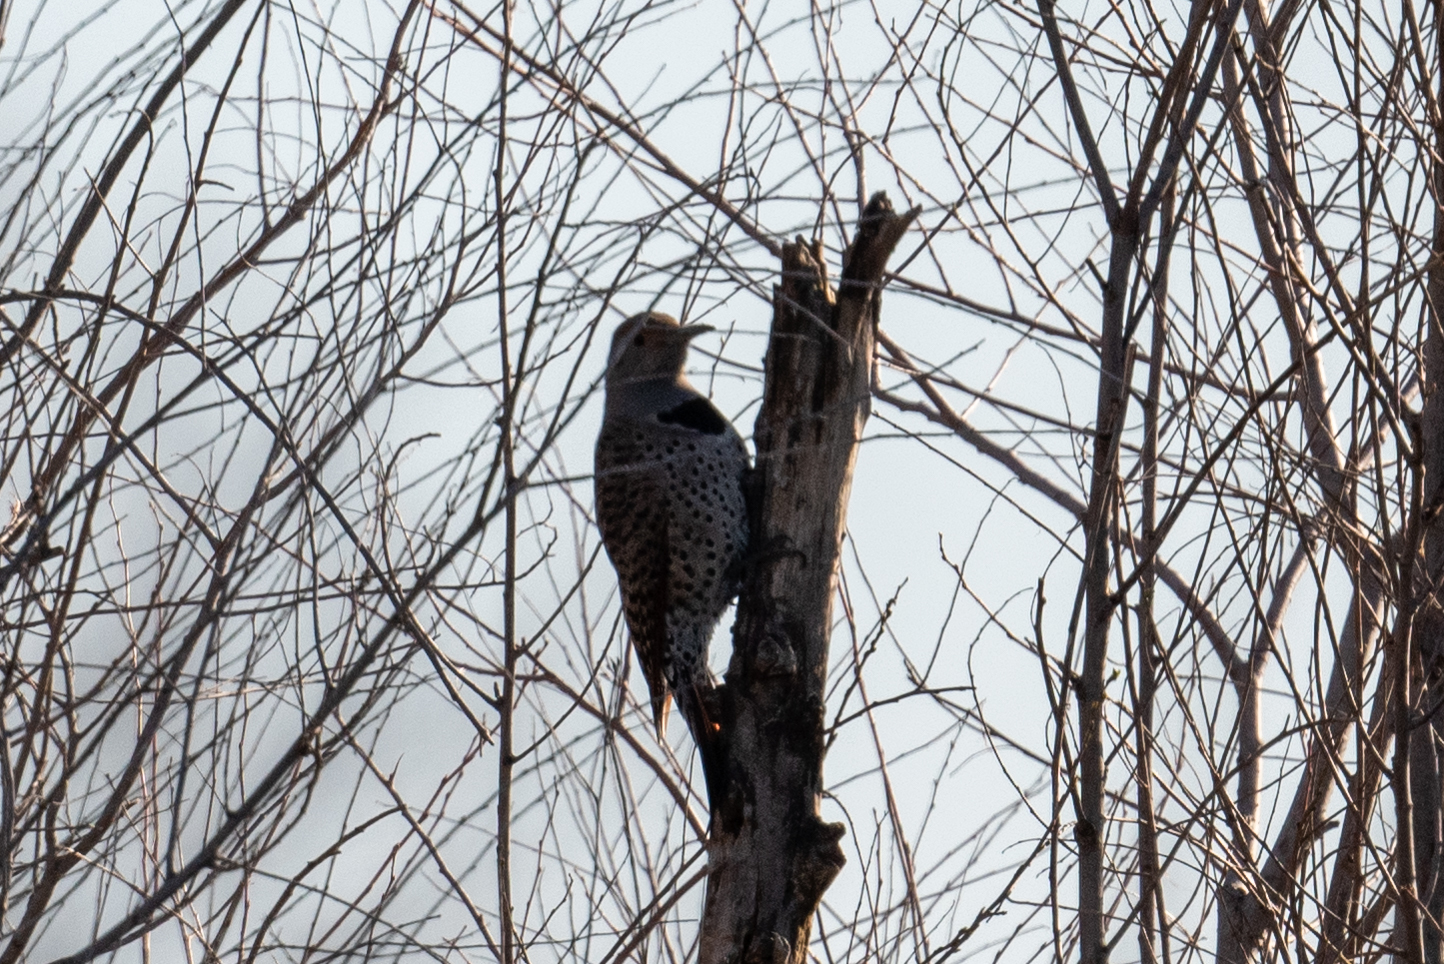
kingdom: Animalia
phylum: Chordata
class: Aves
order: Piciformes
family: Picidae
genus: Colaptes
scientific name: Colaptes auratus
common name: Northern flicker
